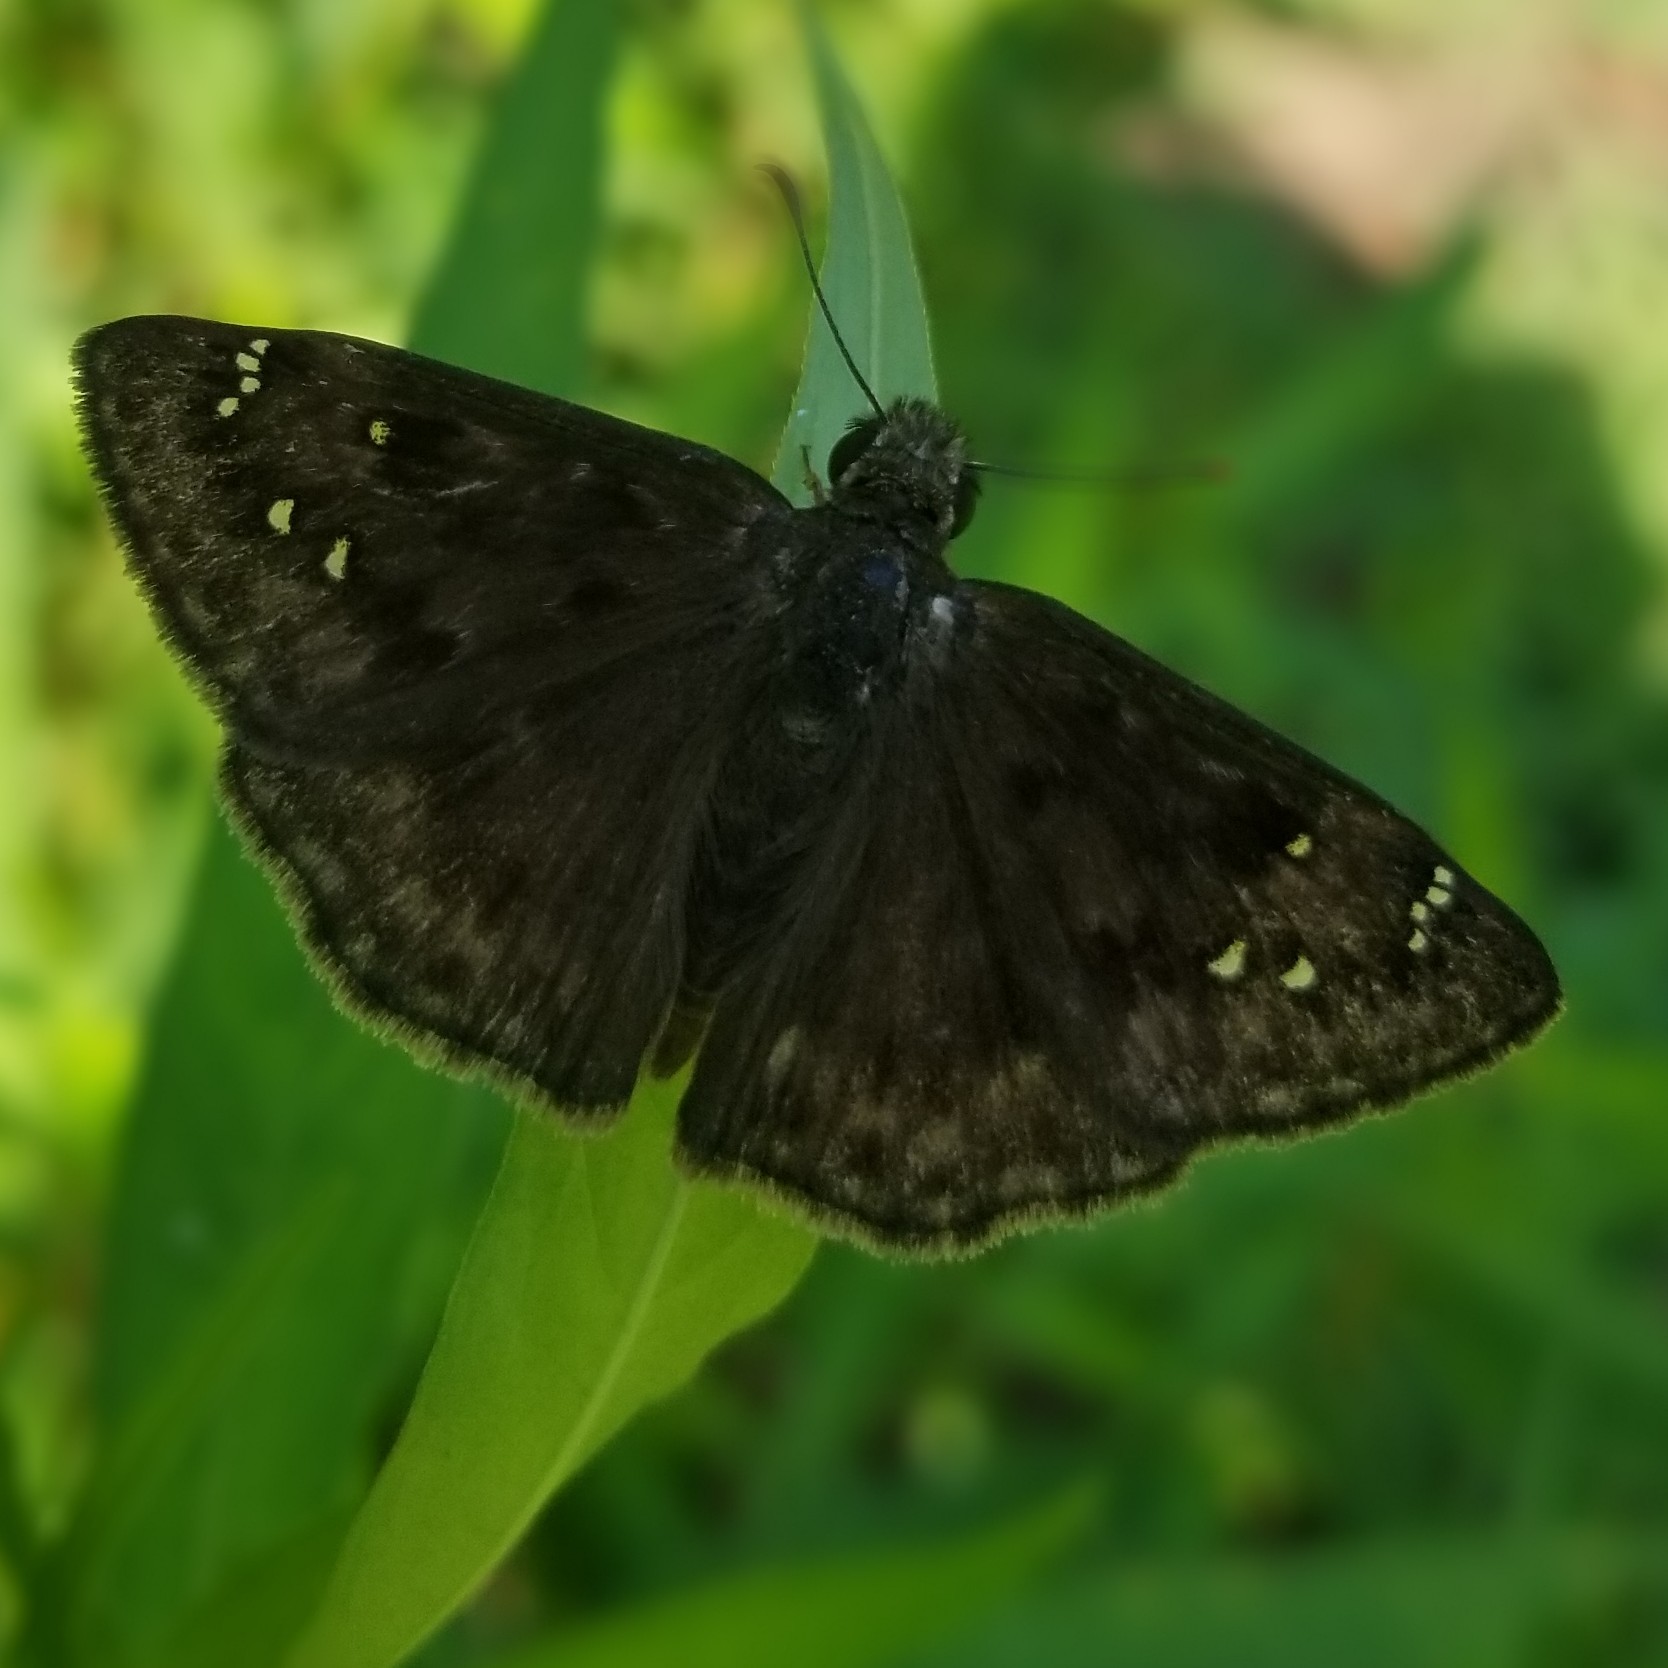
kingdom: Animalia
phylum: Arthropoda
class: Insecta
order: Lepidoptera
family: Hesperiidae
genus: Erynnis
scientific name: Erynnis horatius
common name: Horace's duskywing
